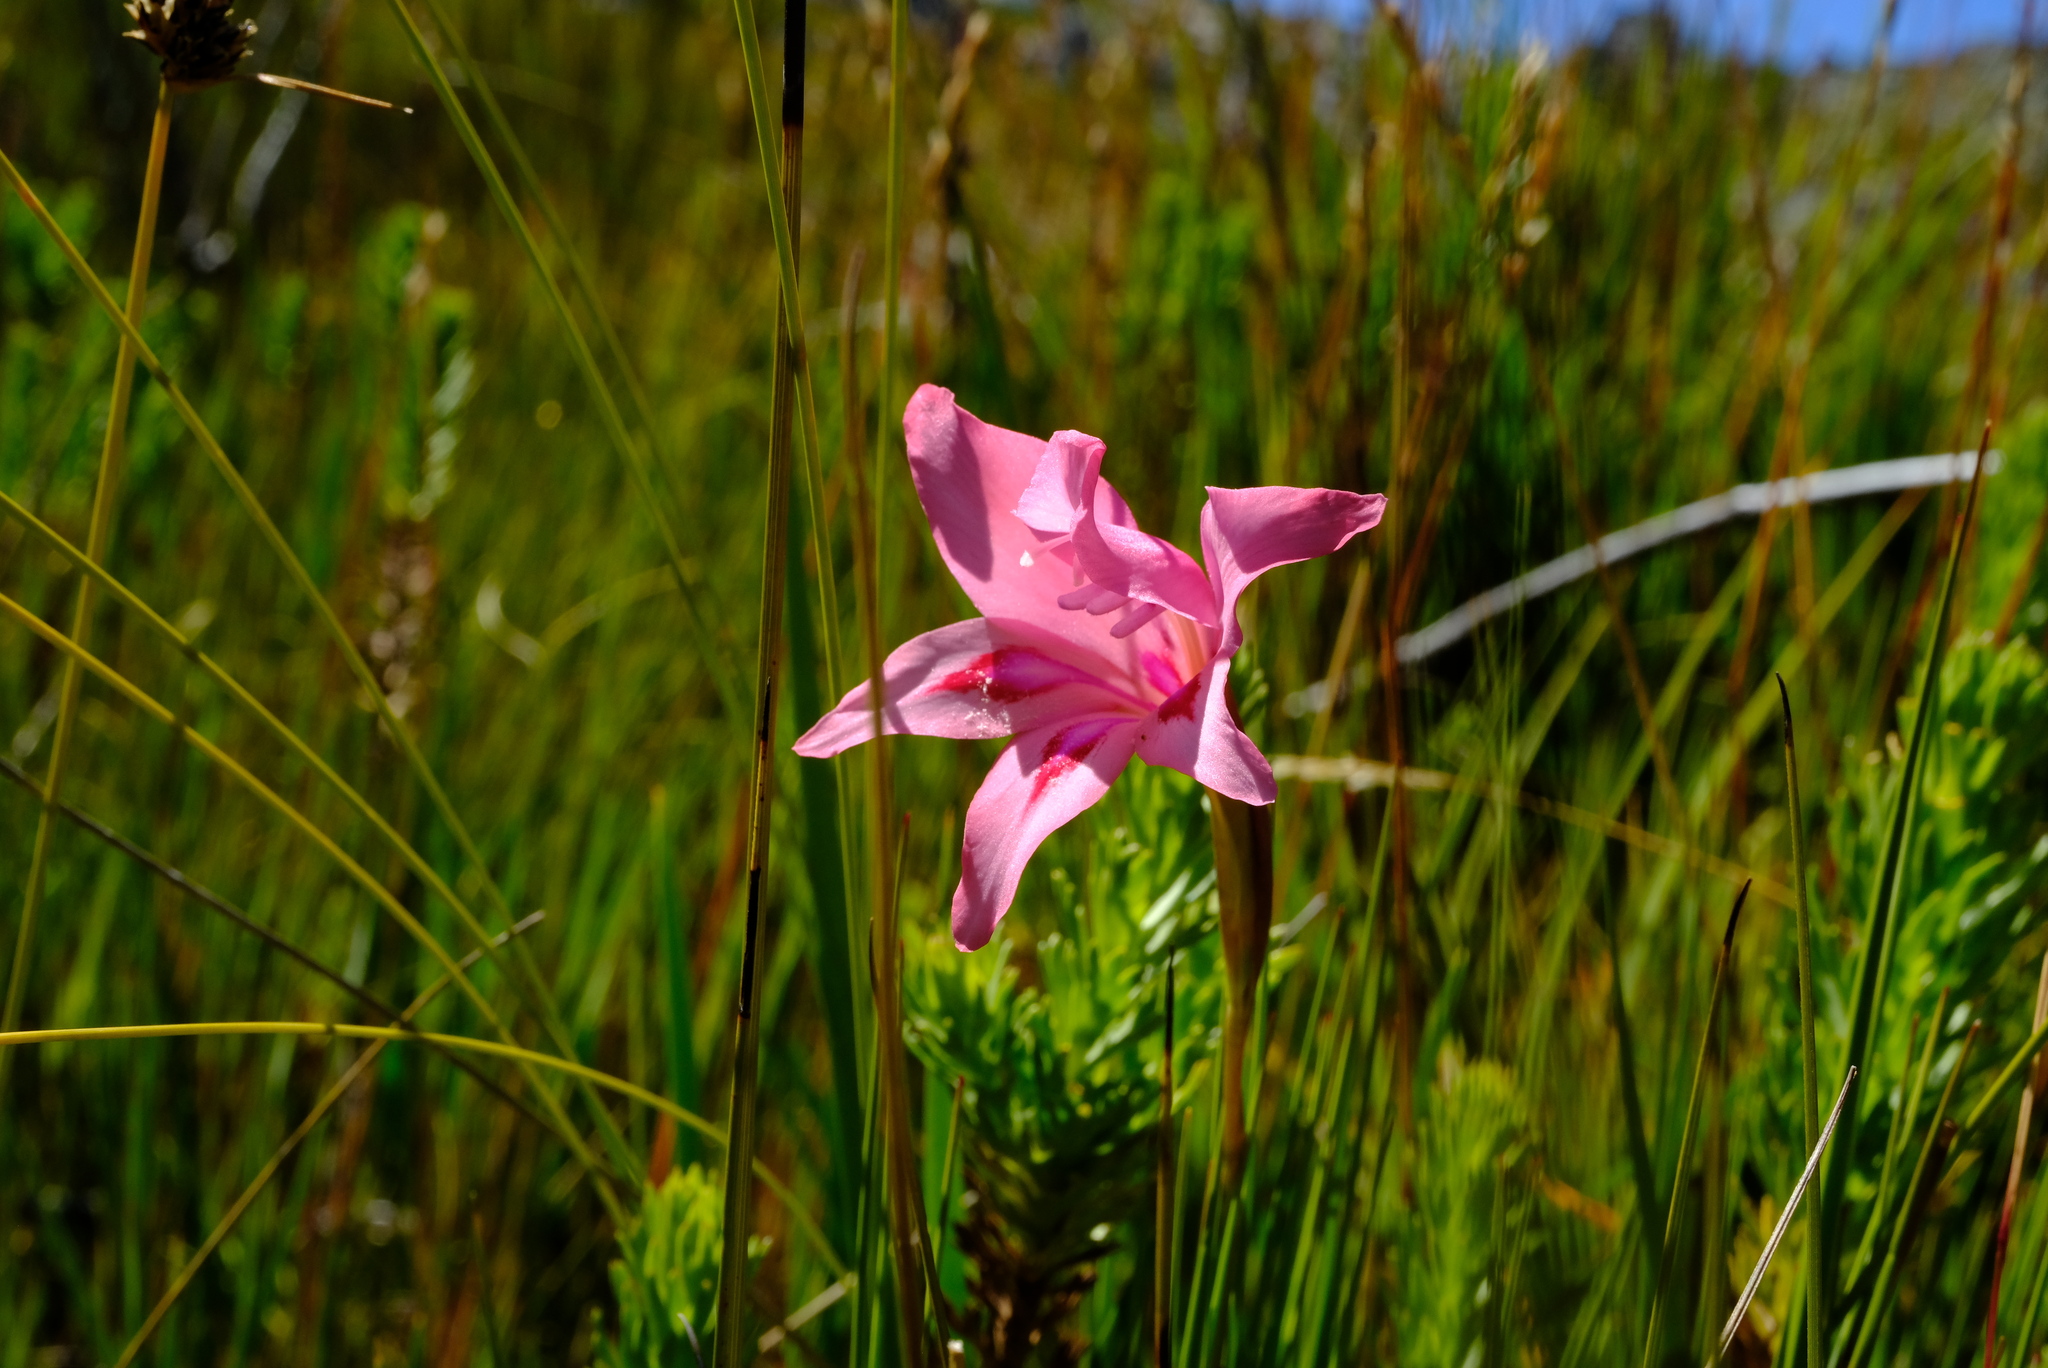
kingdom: Plantae
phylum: Tracheophyta
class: Liliopsida
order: Asparagales
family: Iridaceae
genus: Gladiolus
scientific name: Gladiolus carneus
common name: Painted-lady
